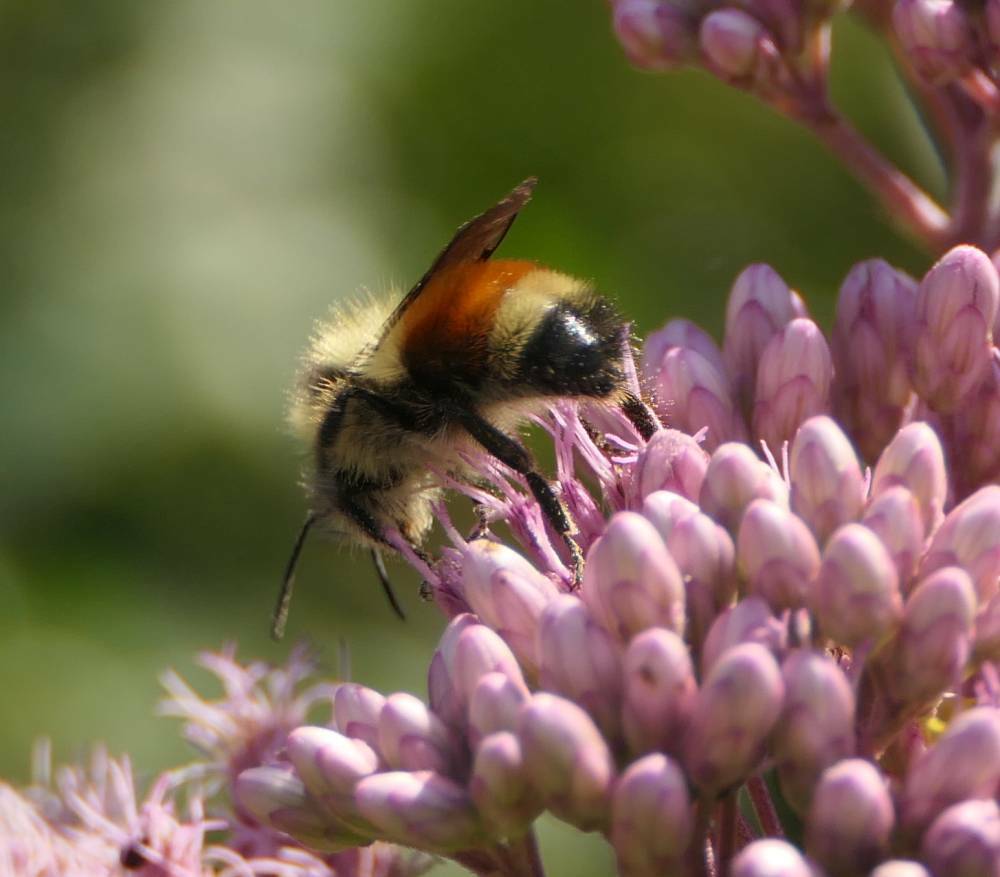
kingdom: Animalia
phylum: Arthropoda
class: Insecta
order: Hymenoptera
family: Apidae
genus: Bombus
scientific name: Bombus ternarius
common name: Tri-colored bumble bee
